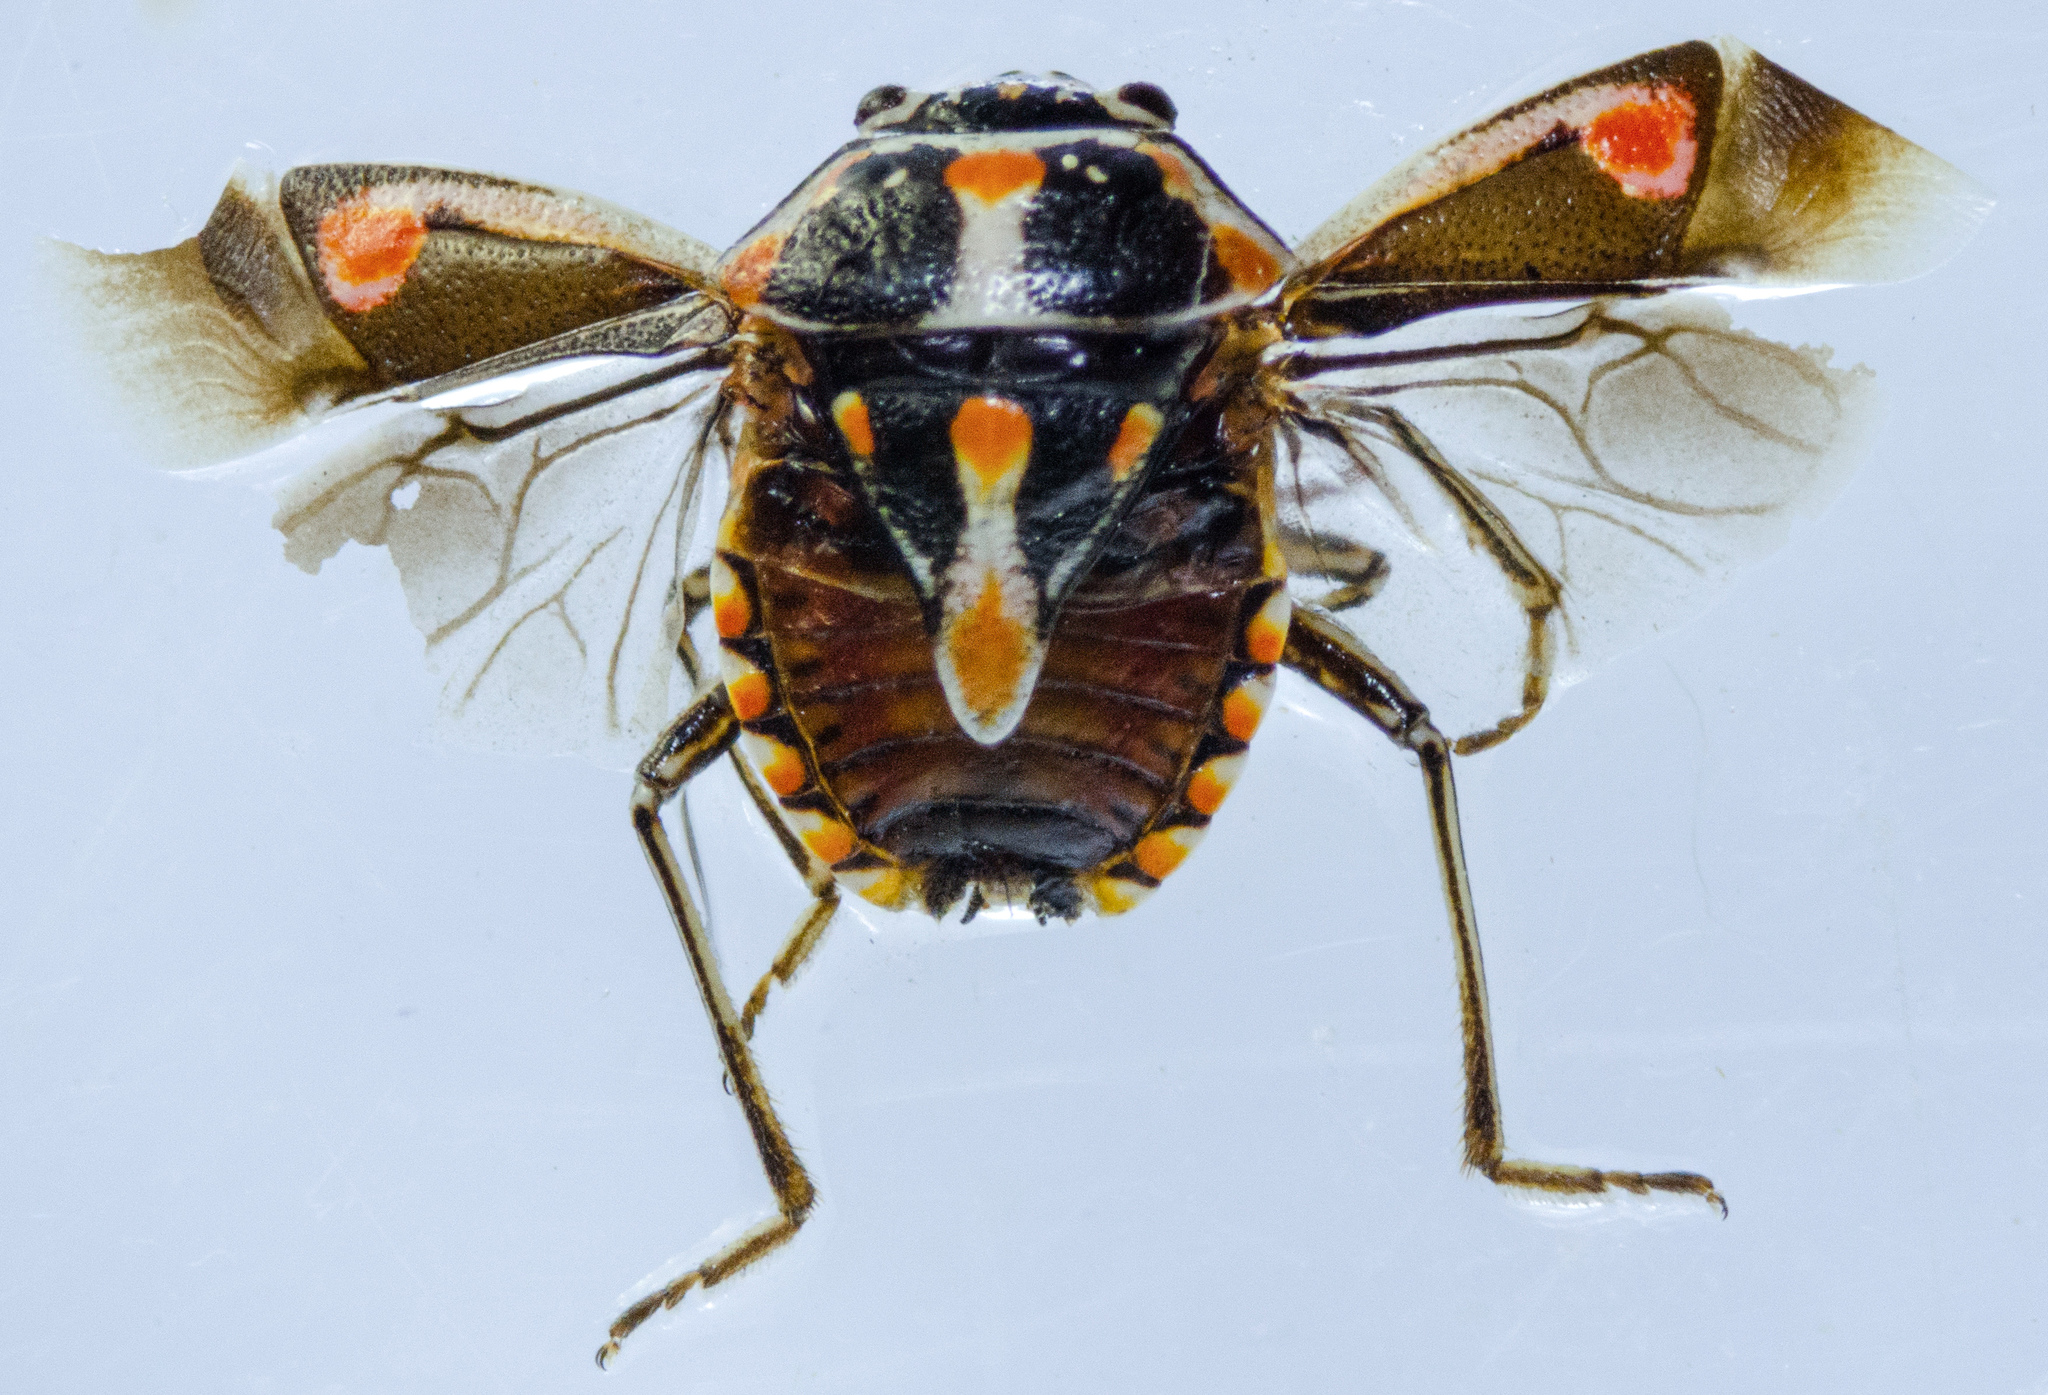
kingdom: Animalia
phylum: Arthropoda
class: Insecta
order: Hemiptera
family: Pentatomidae
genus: Bagrada
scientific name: Bagrada hilaris
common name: Bagrada bug
